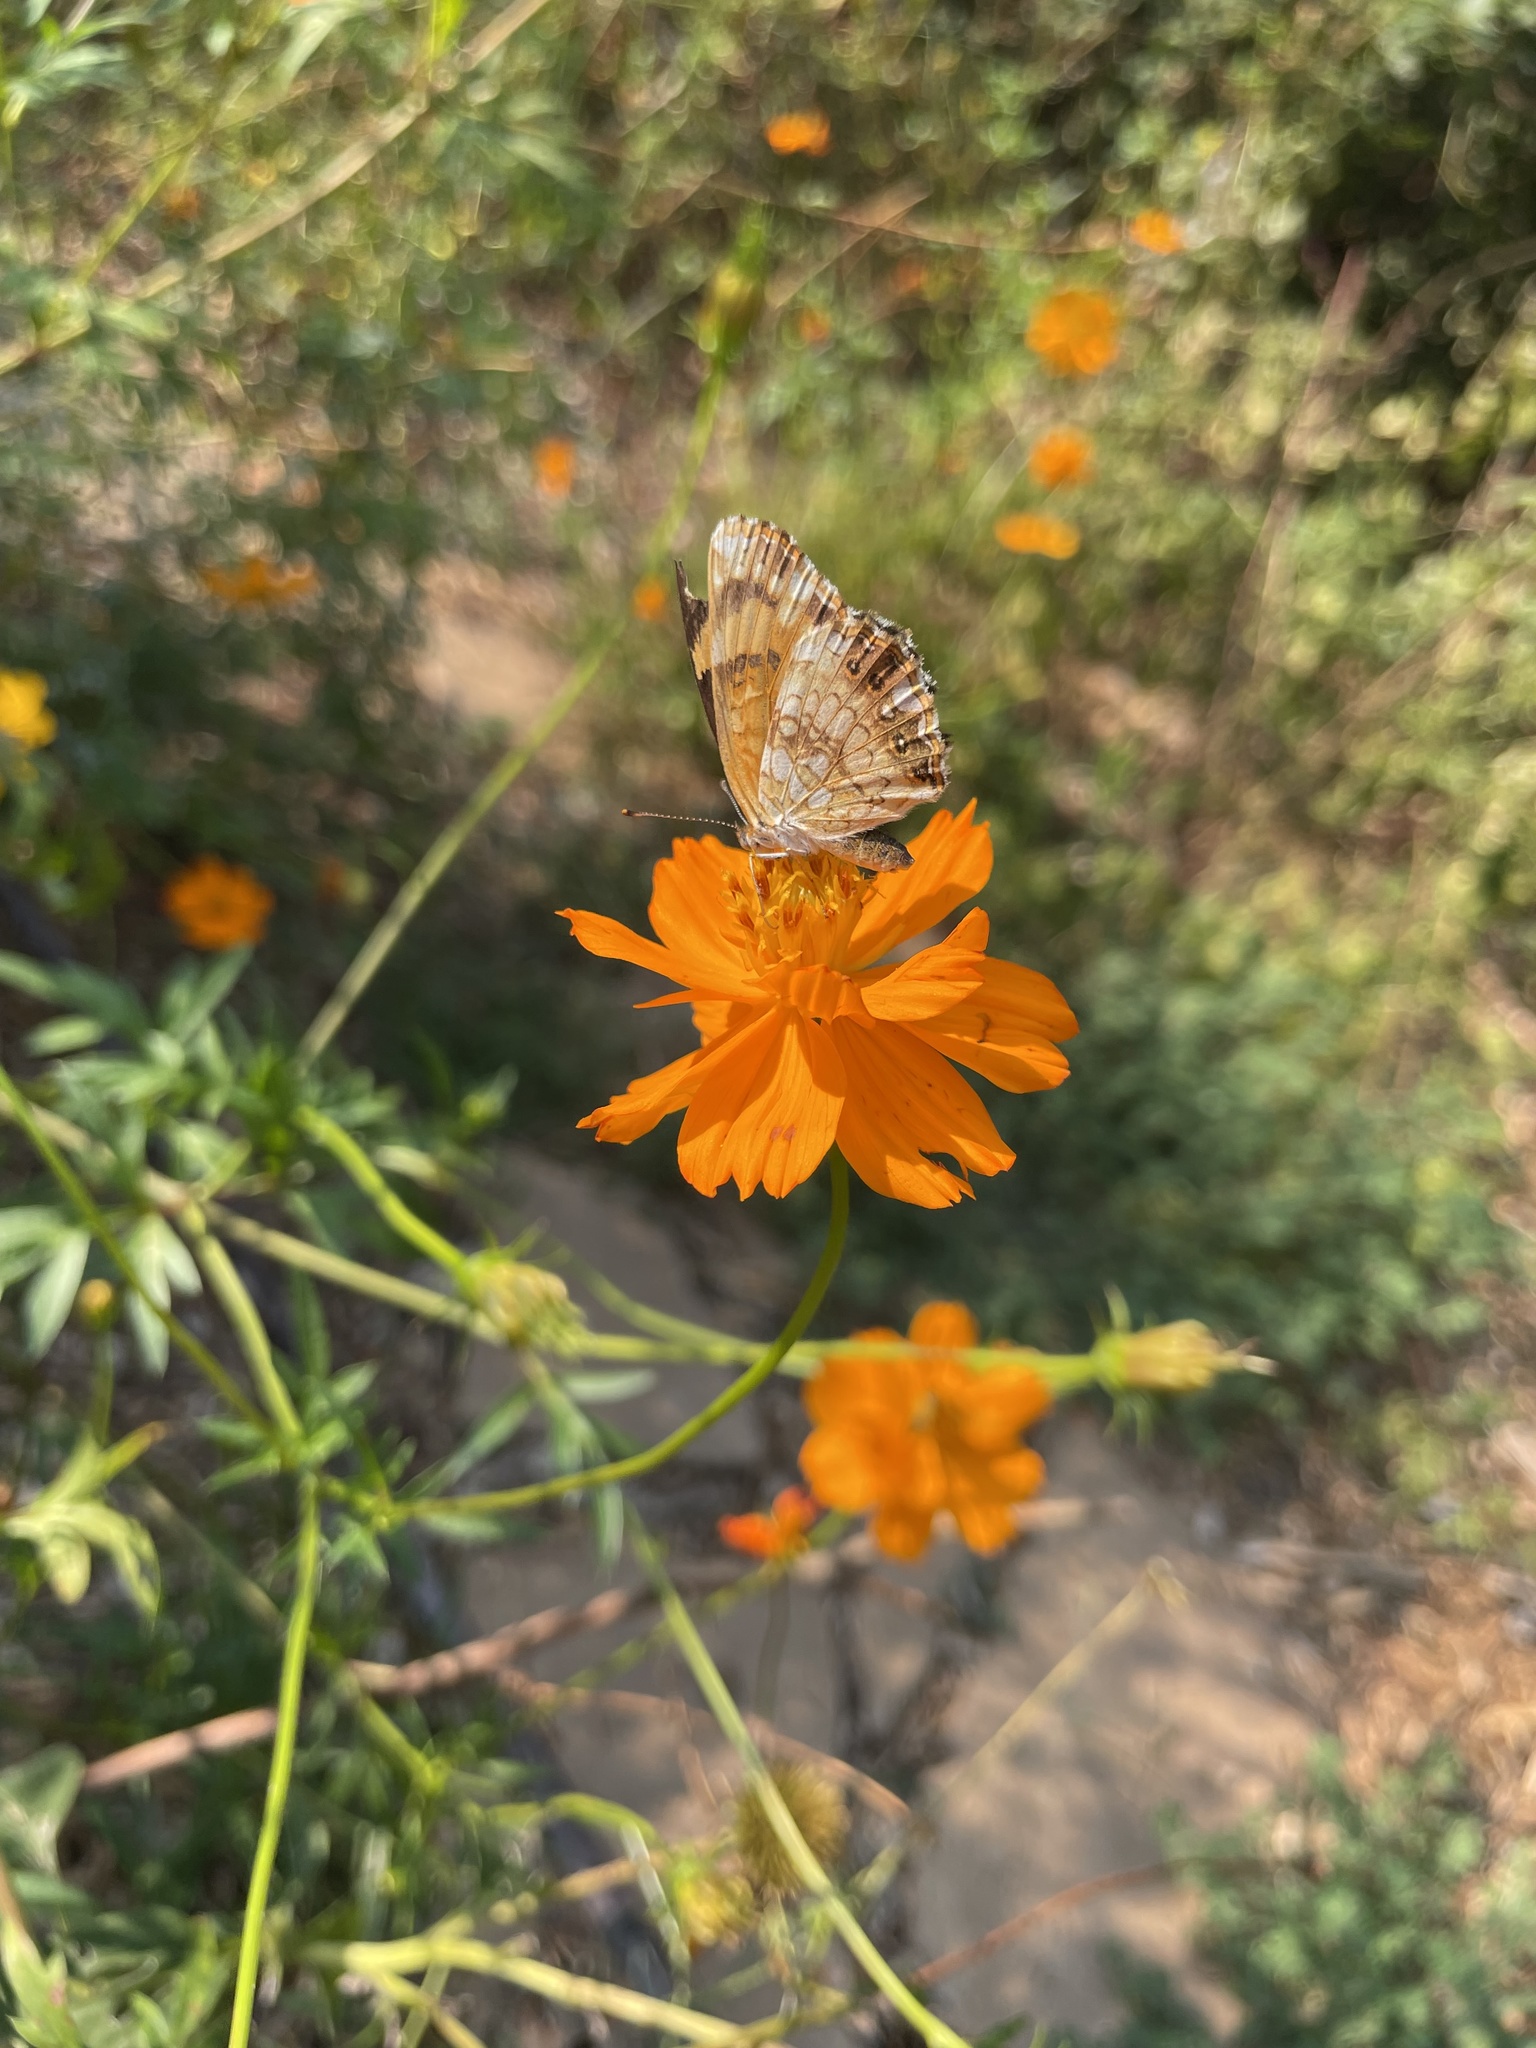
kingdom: Animalia
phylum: Arthropoda
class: Insecta
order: Lepidoptera
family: Nymphalidae
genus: Chlosyne
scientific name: Chlosyne nycteis
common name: Silvery checkerspot
